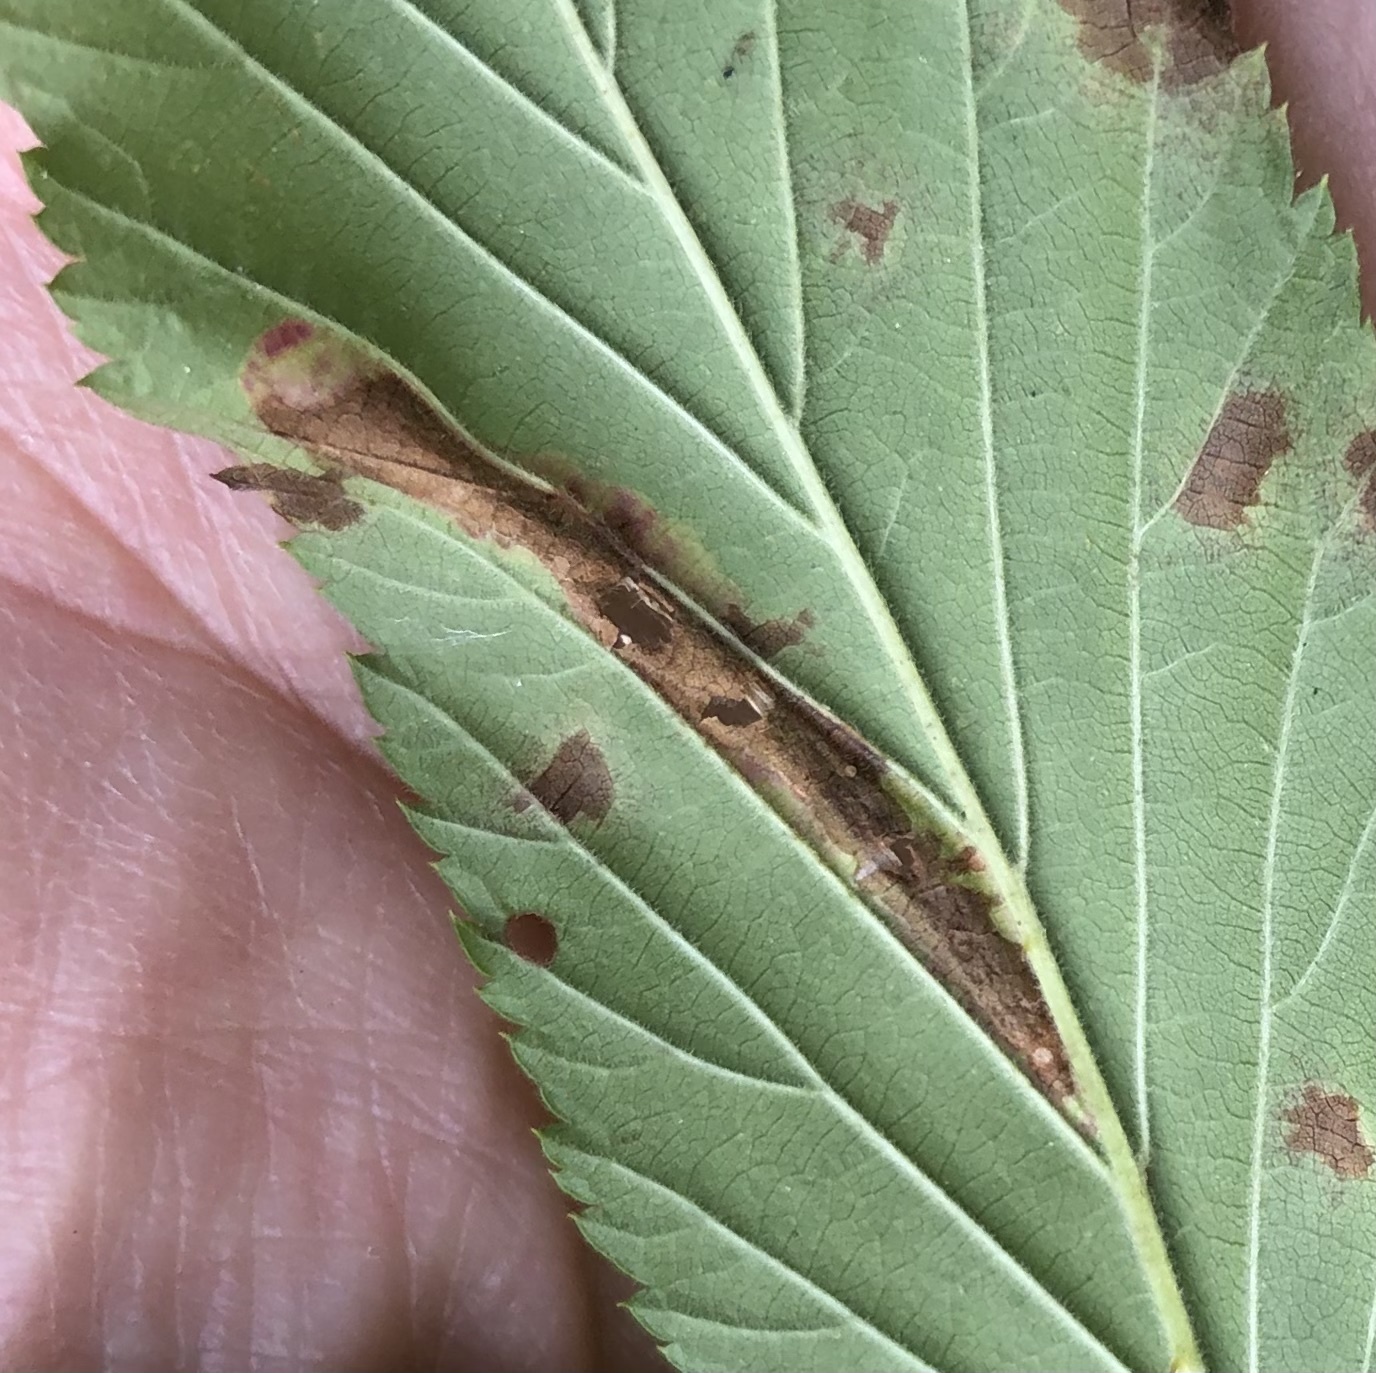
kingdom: Animalia
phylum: Arthropoda
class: Insecta
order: Lepidoptera
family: Tischeriidae
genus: Coptotriche
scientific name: Coptotriche aenea
